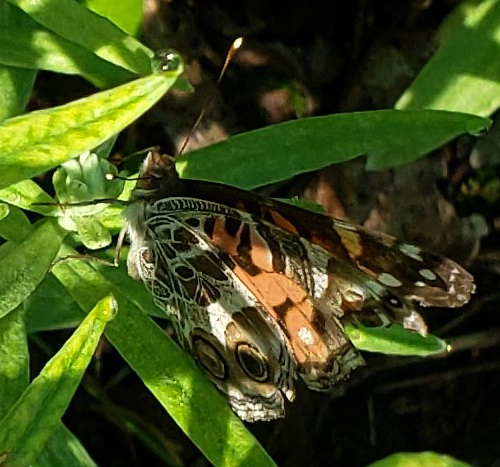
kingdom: Animalia
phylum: Arthropoda
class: Insecta
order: Lepidoptera
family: Nymphalidae
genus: Vanessa
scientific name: Vanessa virginiensis
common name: American lady
